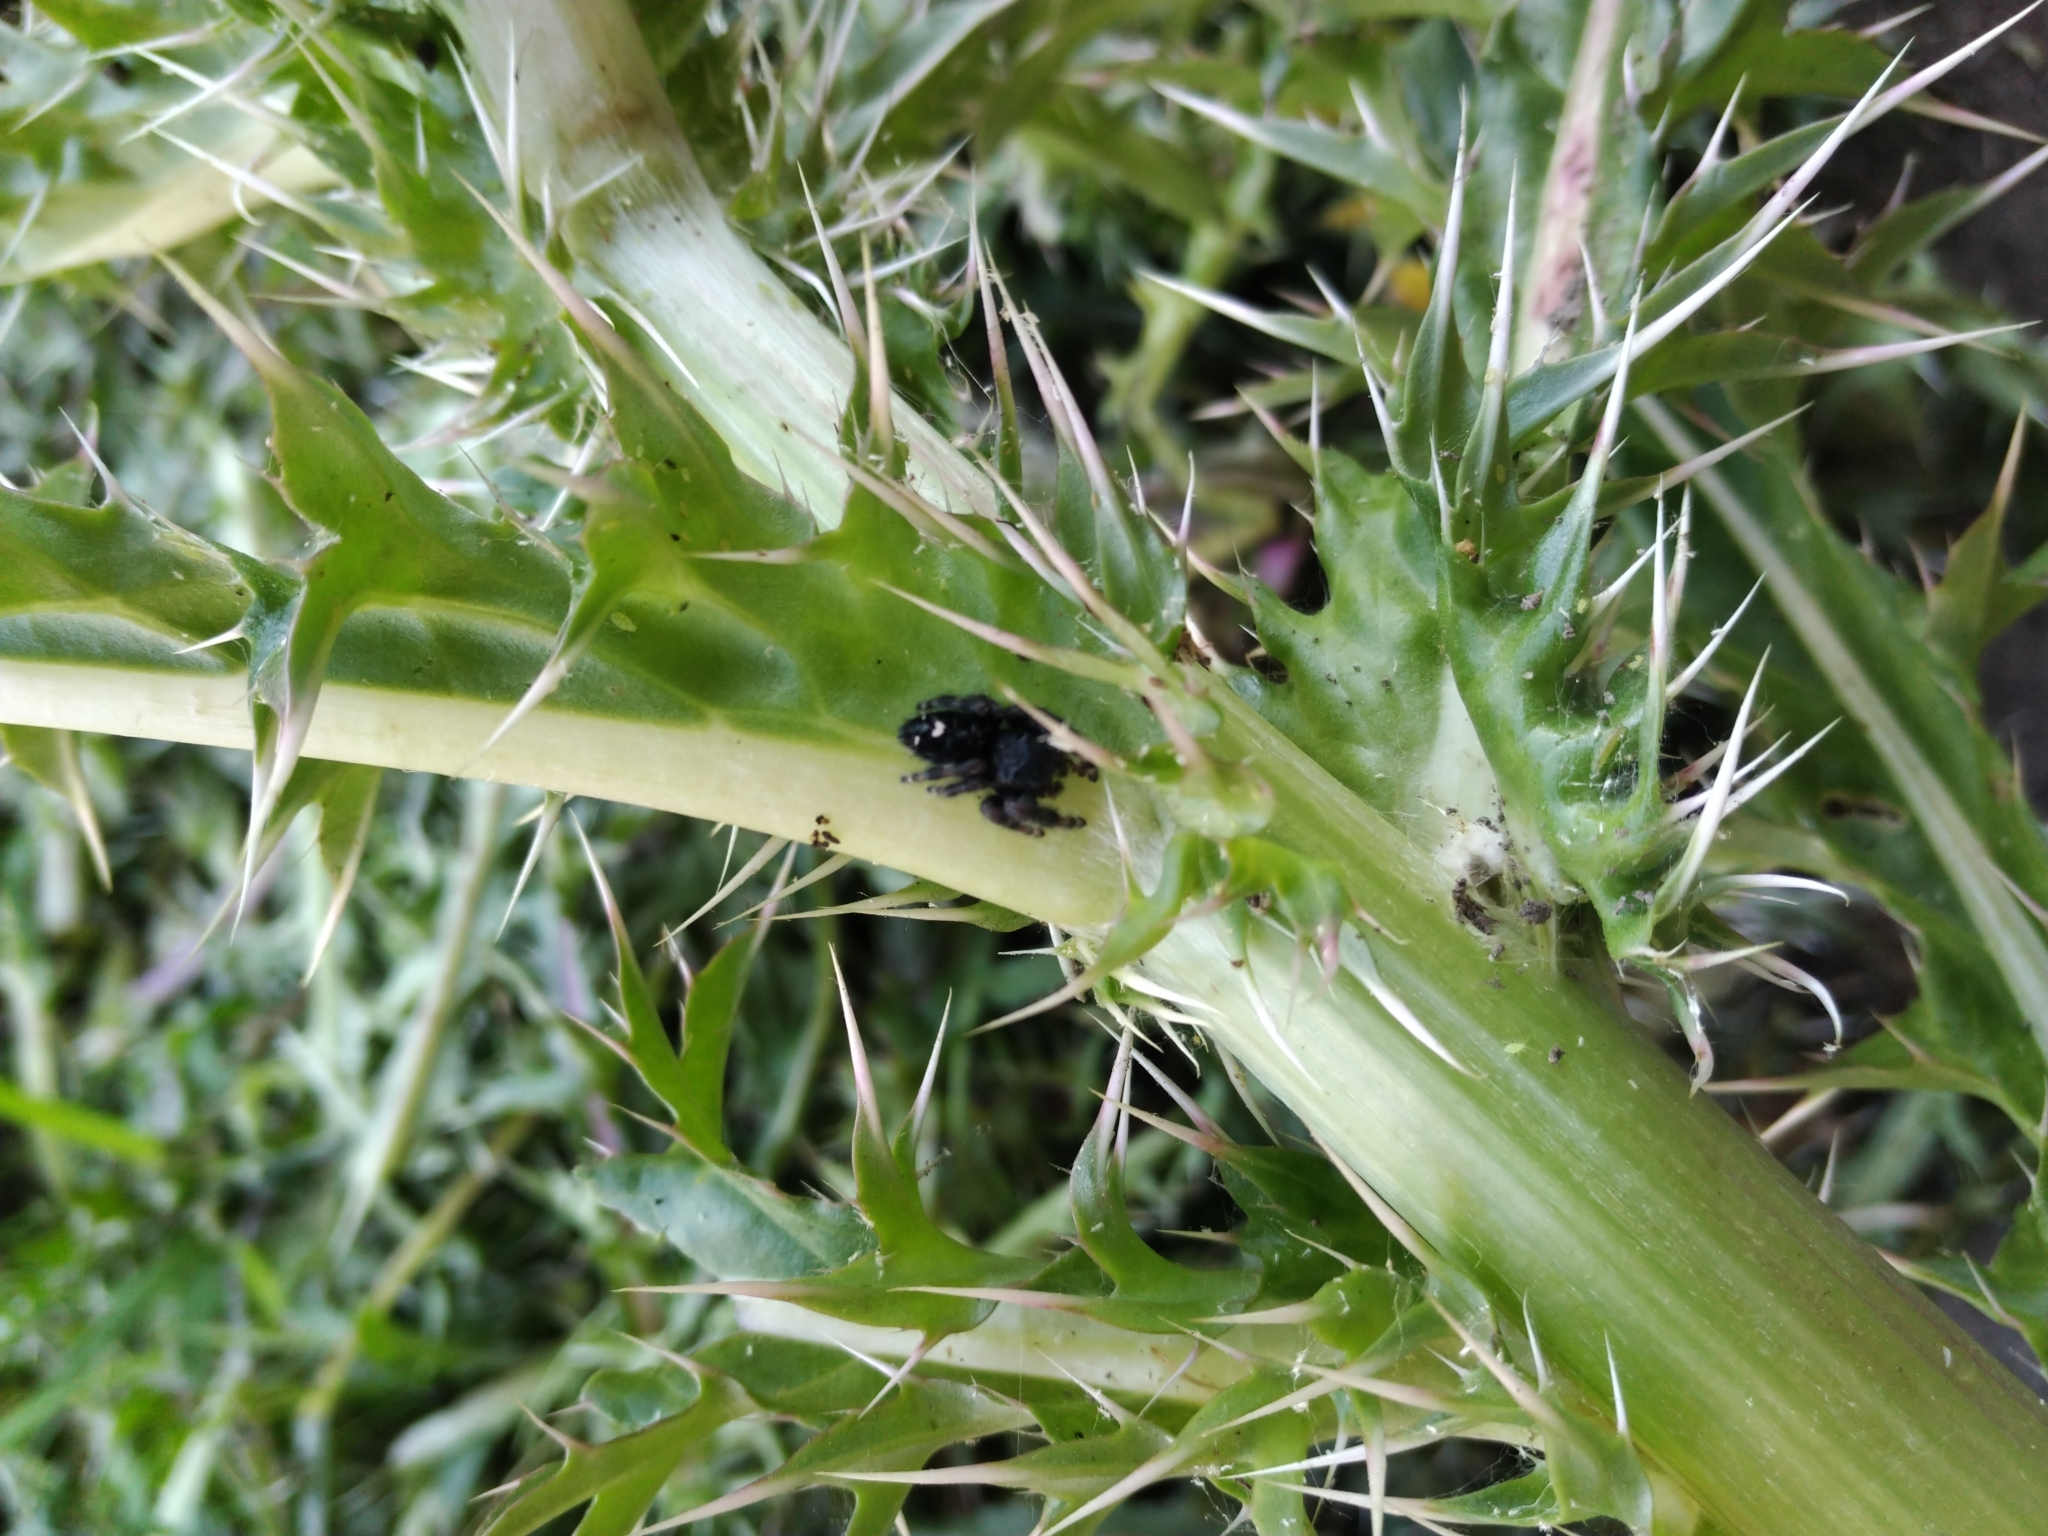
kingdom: Animalia
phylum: Arthropoda
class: Arachnida
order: Araneae
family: Salticidae
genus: Phidippus
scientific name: Phidippus audax
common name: Bold jumper
